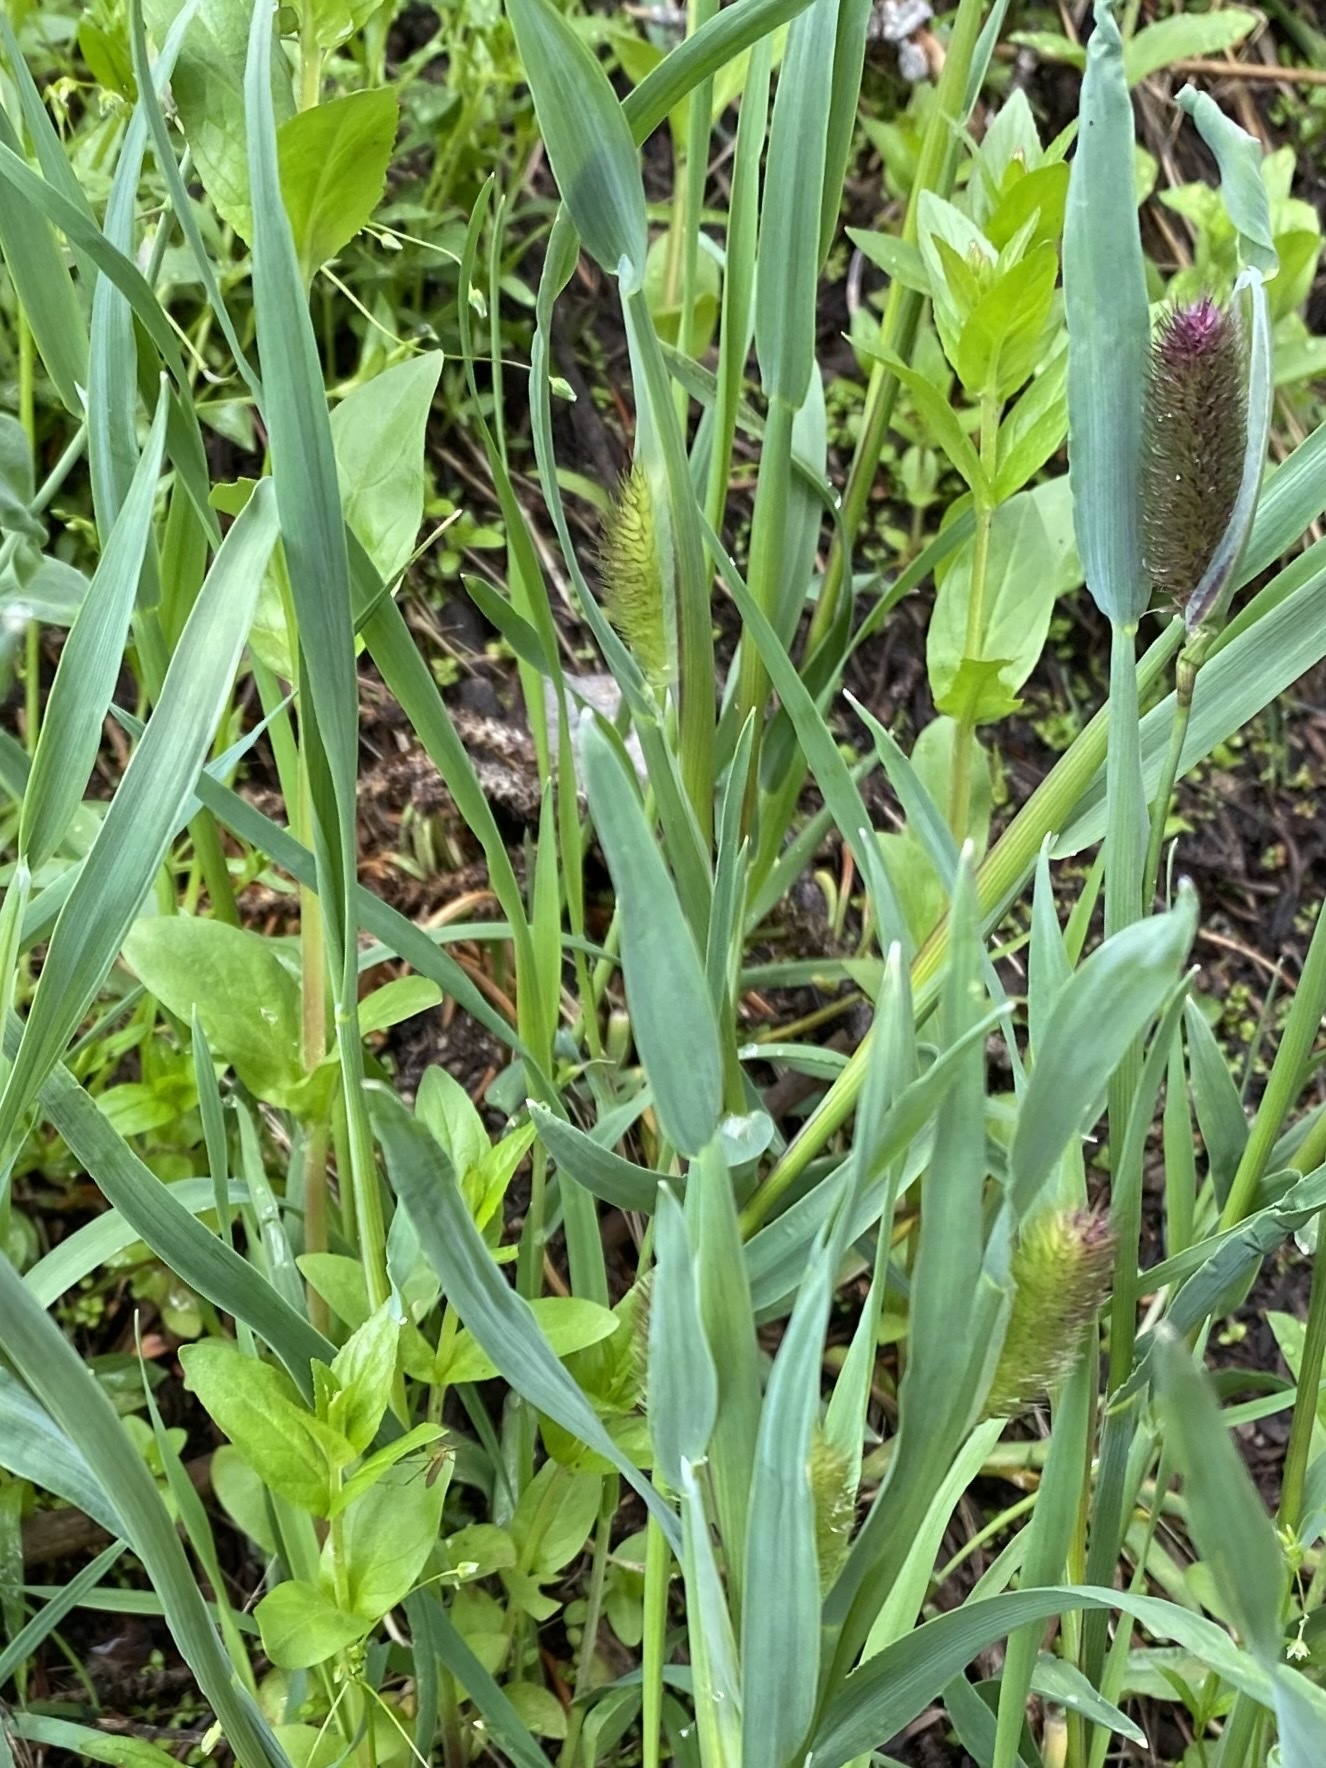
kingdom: Plantae
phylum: Tracheophyta
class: Liliopsida
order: Poales
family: Poaceae
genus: Phleum
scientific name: Phleum alpinum
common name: Alpine cat's-tail
